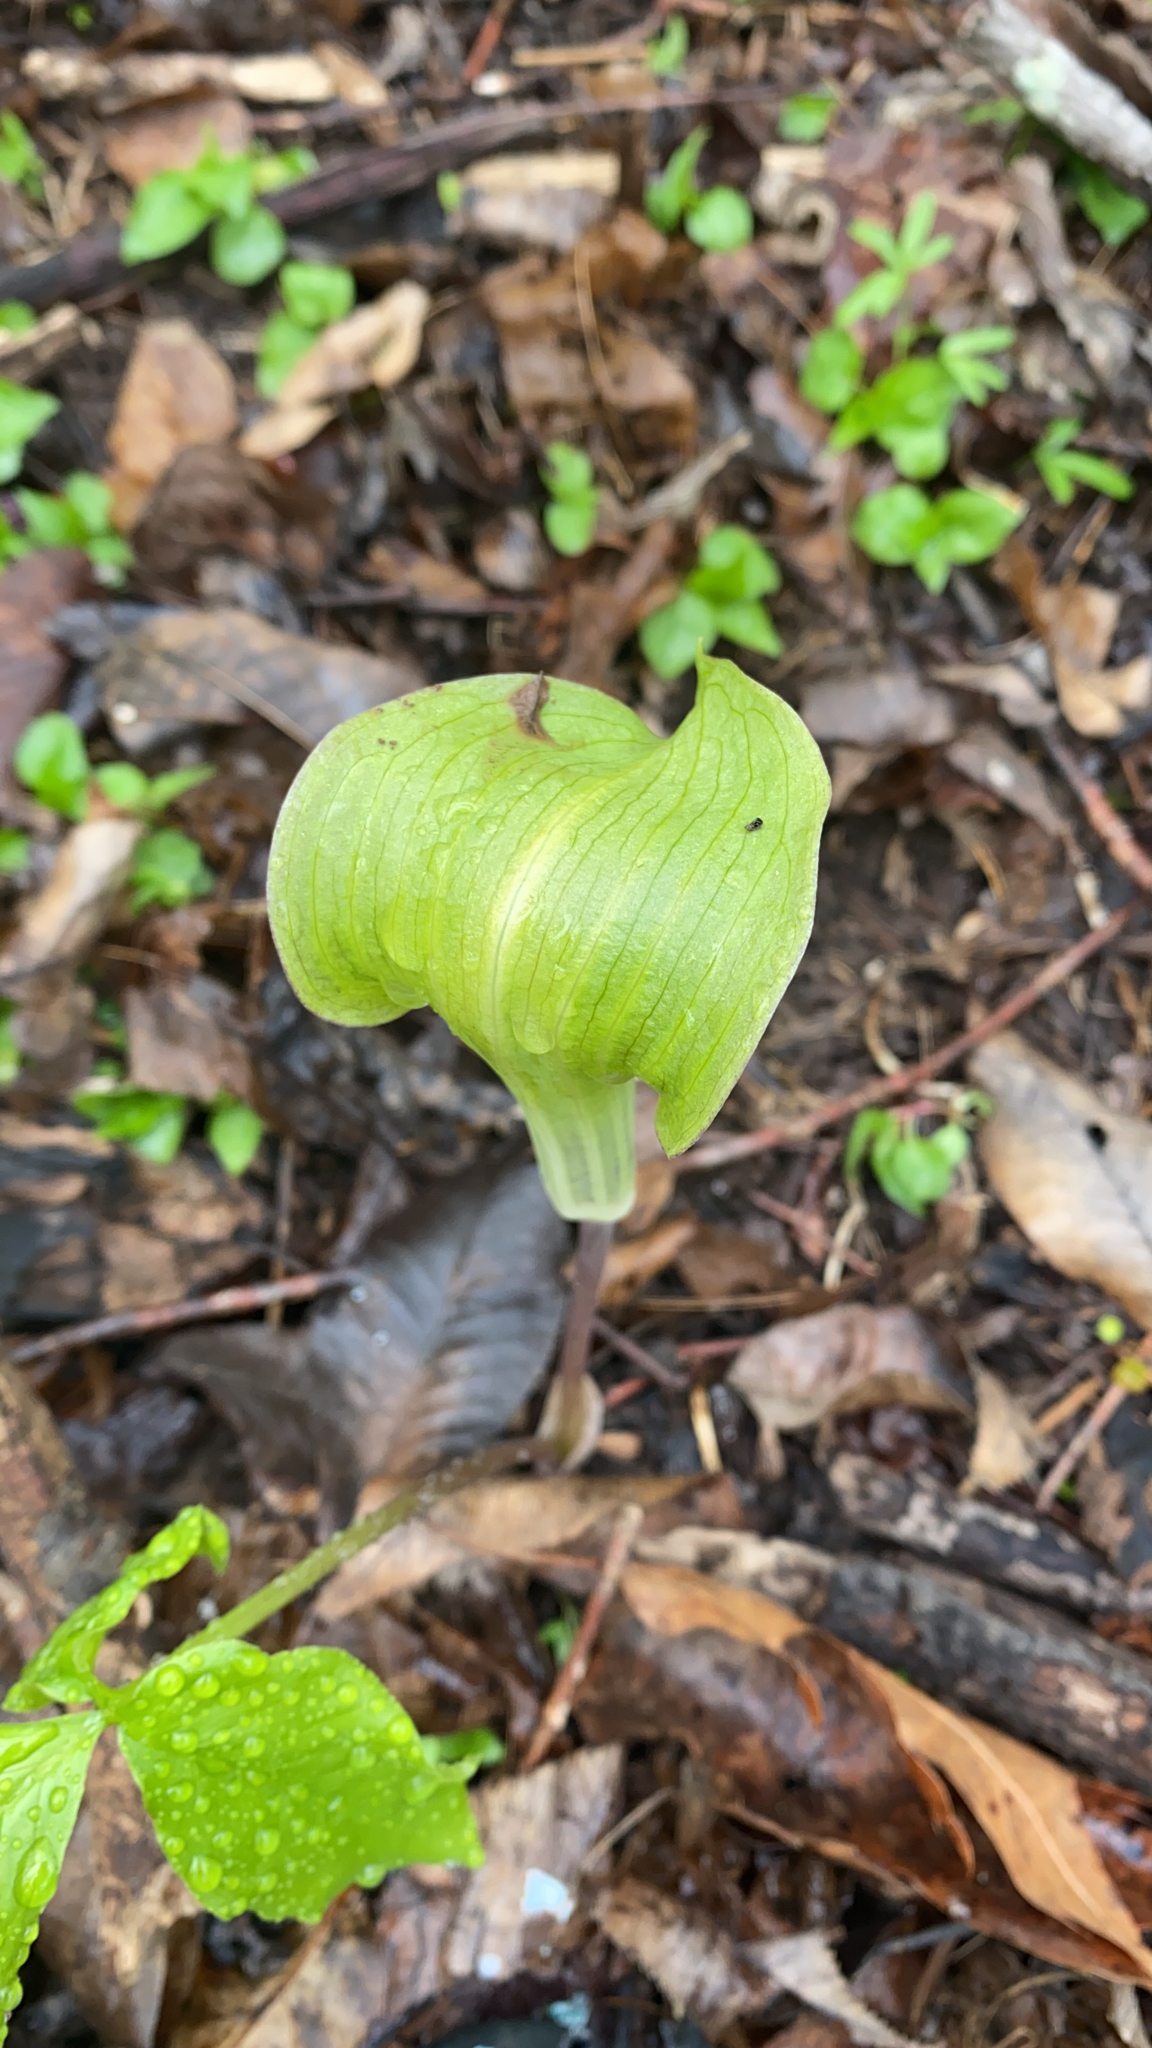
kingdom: Plantae
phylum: Tracheophyta
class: Liliopsida
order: Alismatales
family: Araceae
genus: Arisaema
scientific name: Arisaema triphyllum
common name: Jack-in-the-pulpit
